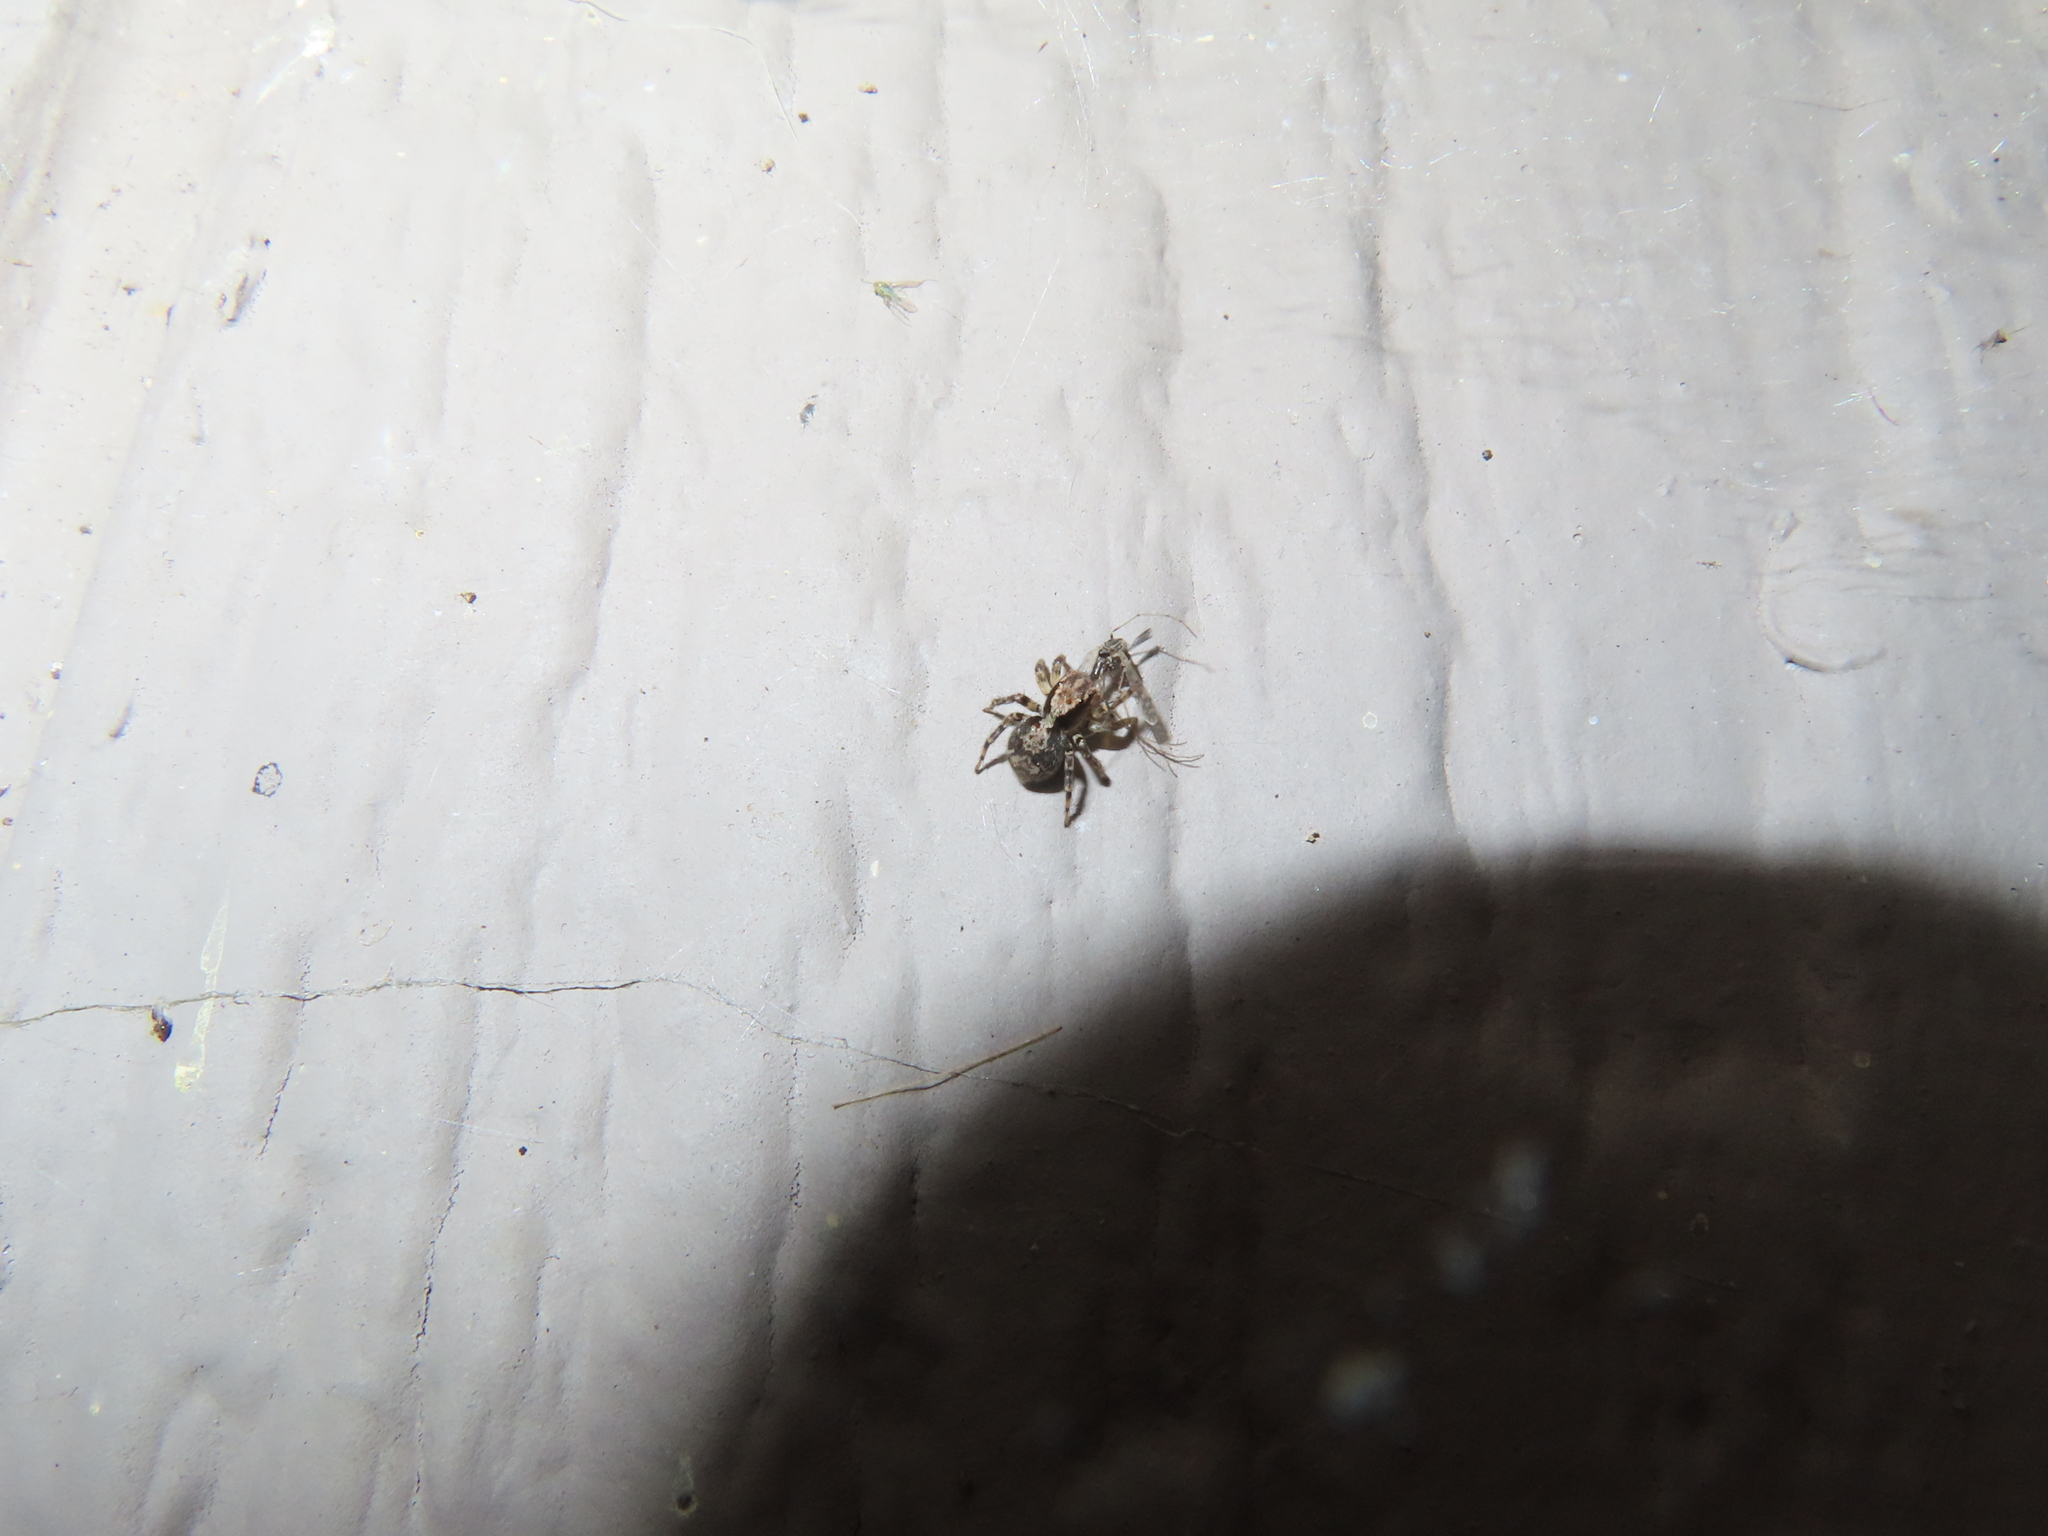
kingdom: Animalia
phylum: Arthropoda
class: Arachnida
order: Araneae
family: Salticidae
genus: Naphrys
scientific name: Naphrys pulex
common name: Flea jumping spider
